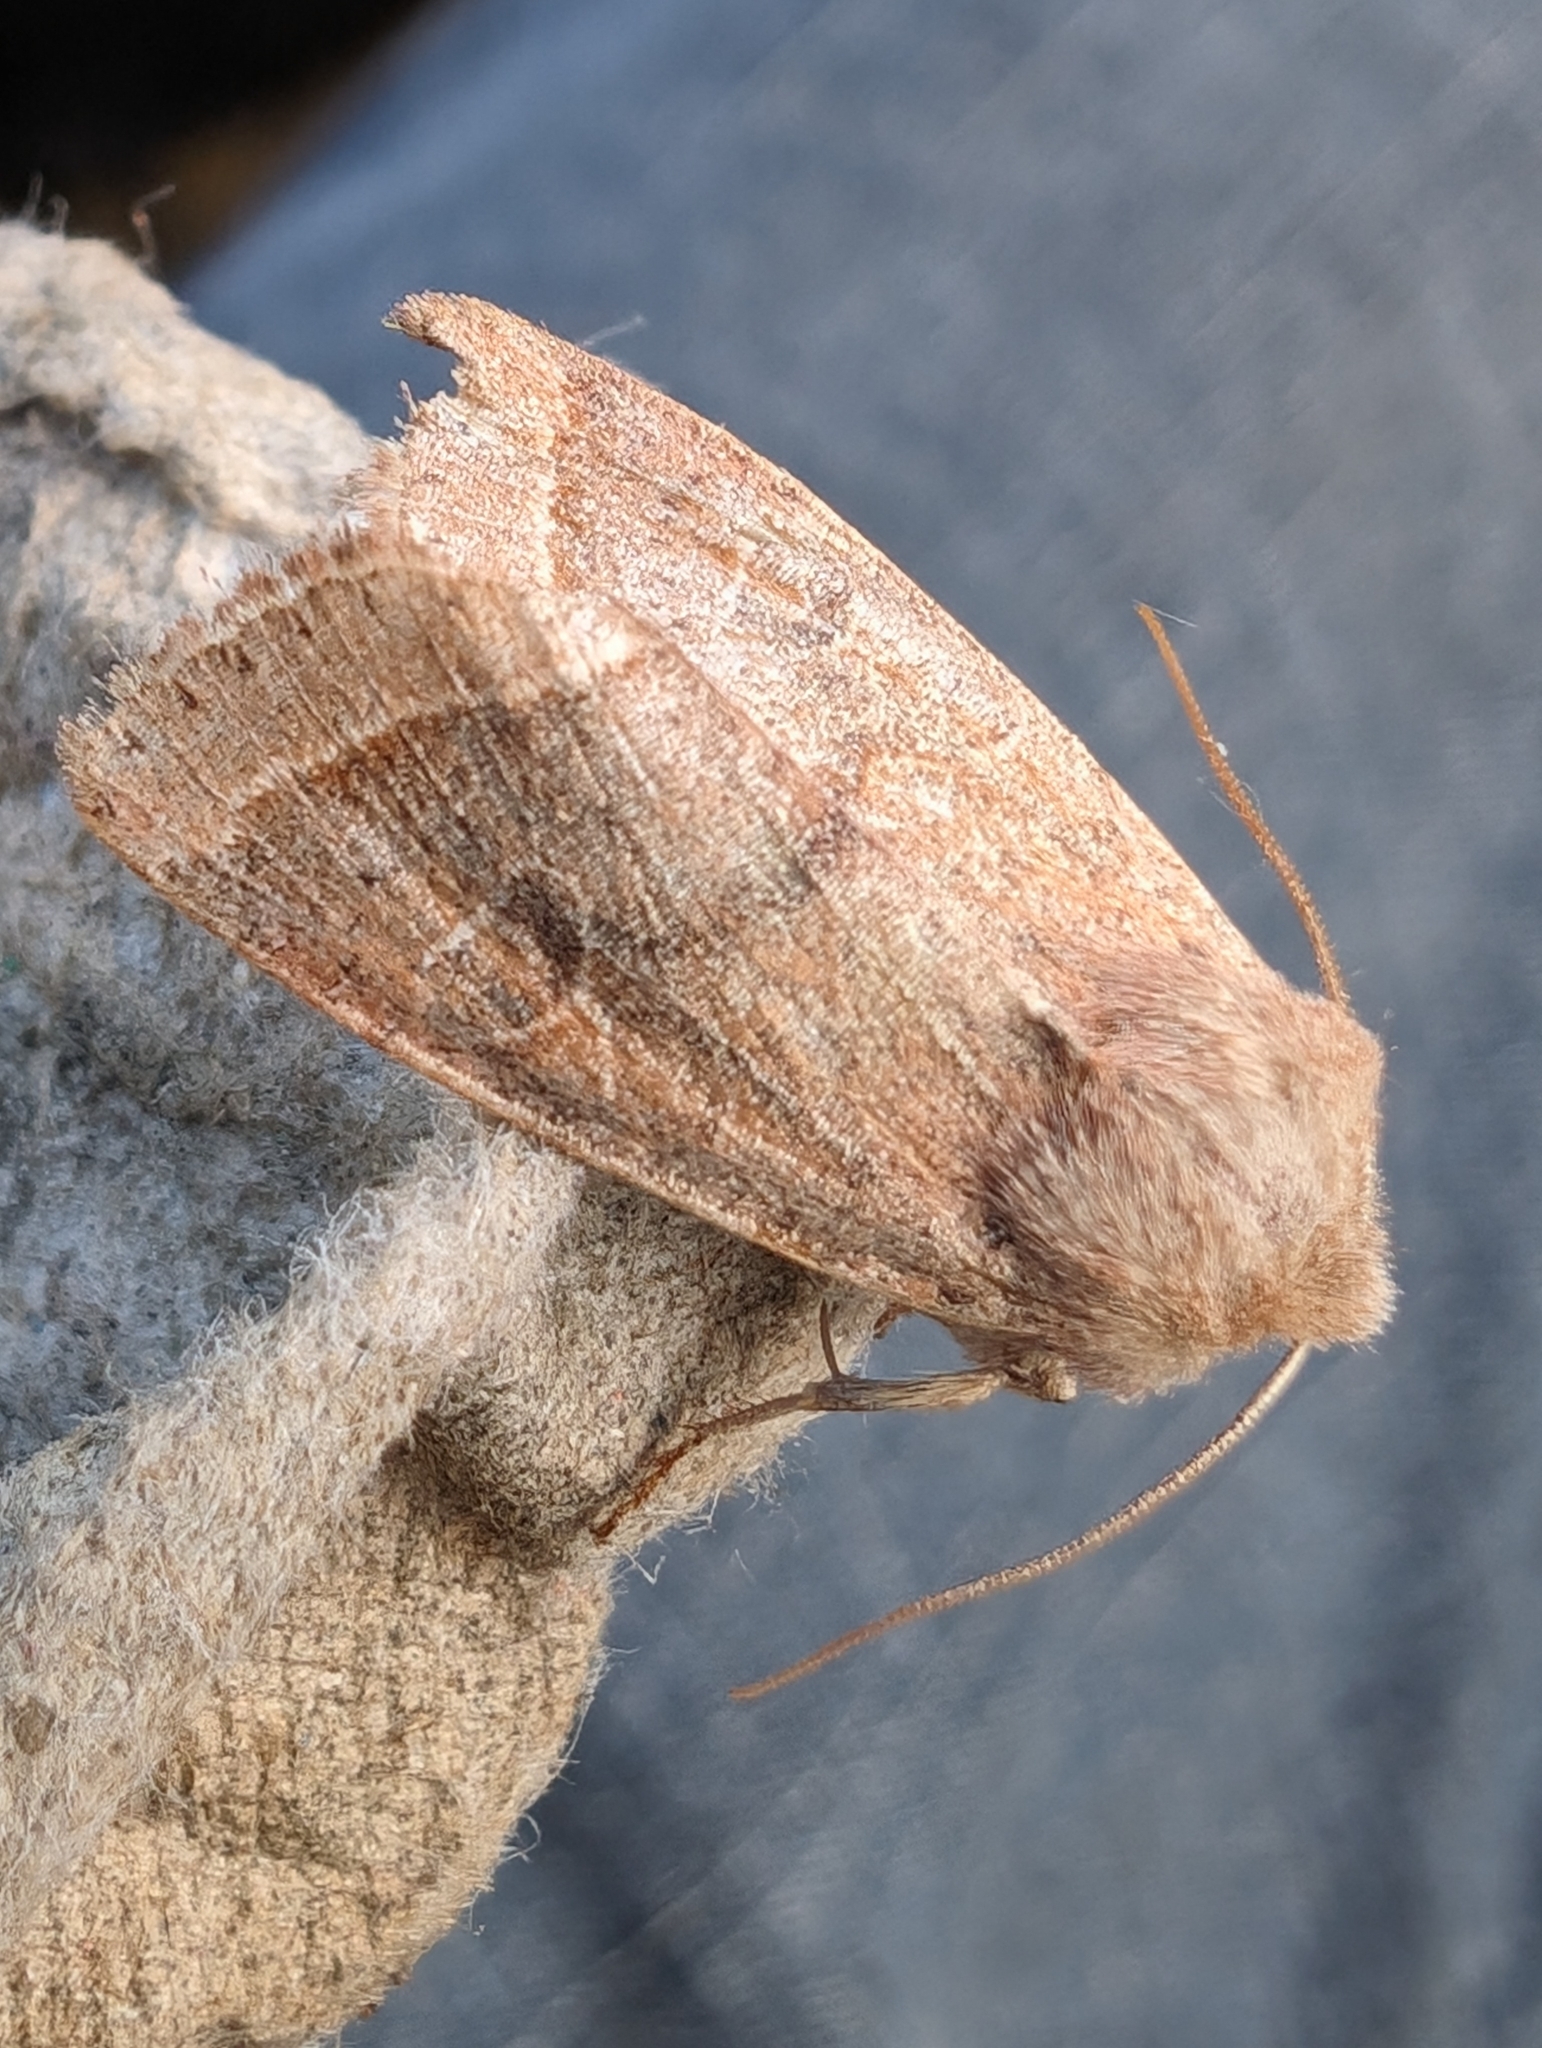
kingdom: Animalia
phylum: Arthropoda
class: Insecta
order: Lepidoptera
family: Noctuidae
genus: Orthosia
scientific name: Orthosia cerasi
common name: Common quaker
